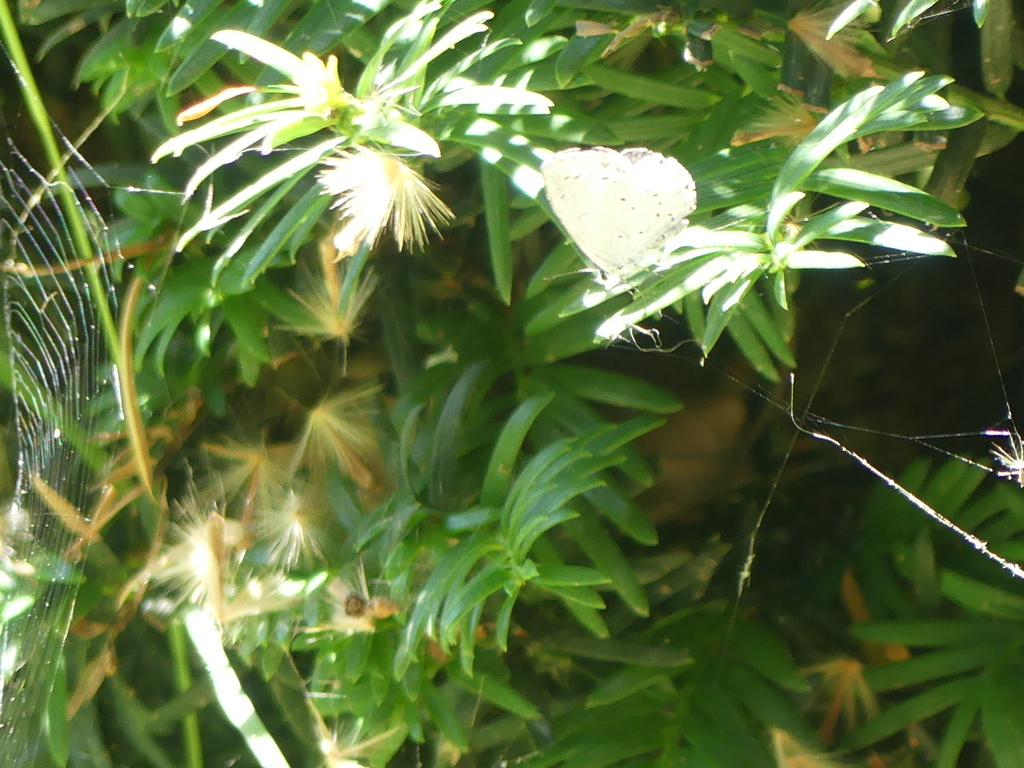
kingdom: Animalia
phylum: Arthropoda
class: Insecta
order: Lepidoptera
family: Lycaenidae
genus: Celastrina
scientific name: Celastrina argiolus
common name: Holly blue
